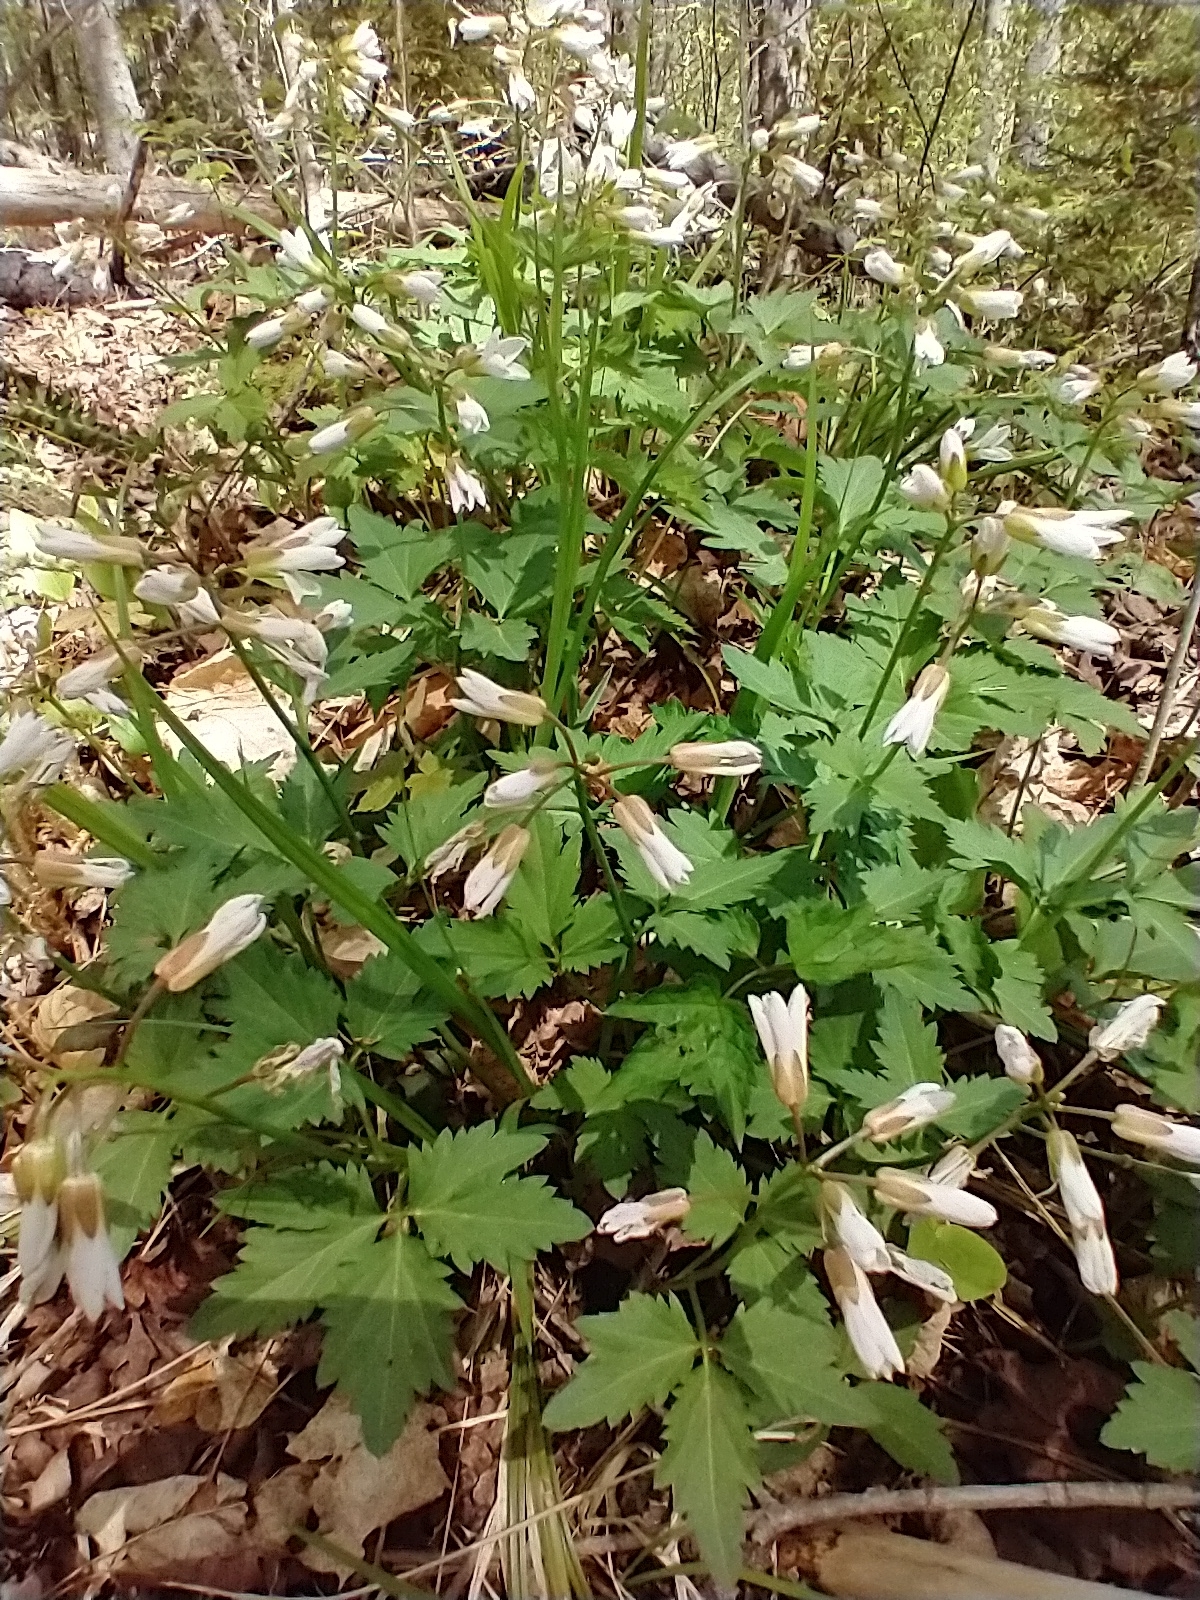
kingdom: Plantae
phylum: Tracheophyta
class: Magnoliopsida
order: Brassicales
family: Brassicaceae
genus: Cardamine
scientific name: Cardamine diphylla
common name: Broad-leaved toothwort
